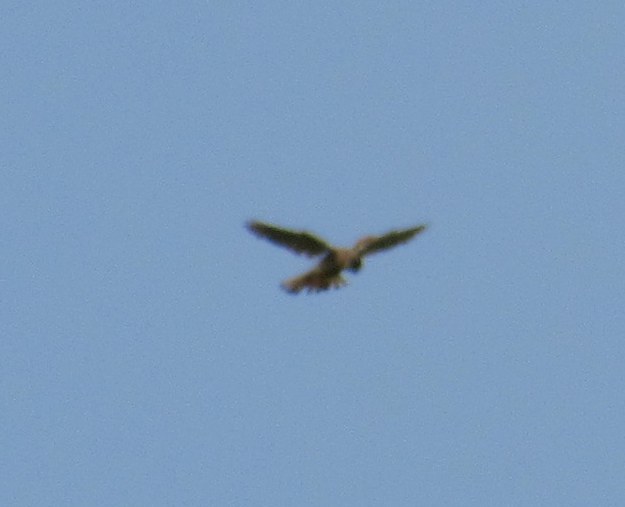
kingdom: Animalia
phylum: Chordata
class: Aves
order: Falconiformes
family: Falconidae
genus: Falco
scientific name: Falco tinnunculus
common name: Common kestrel
